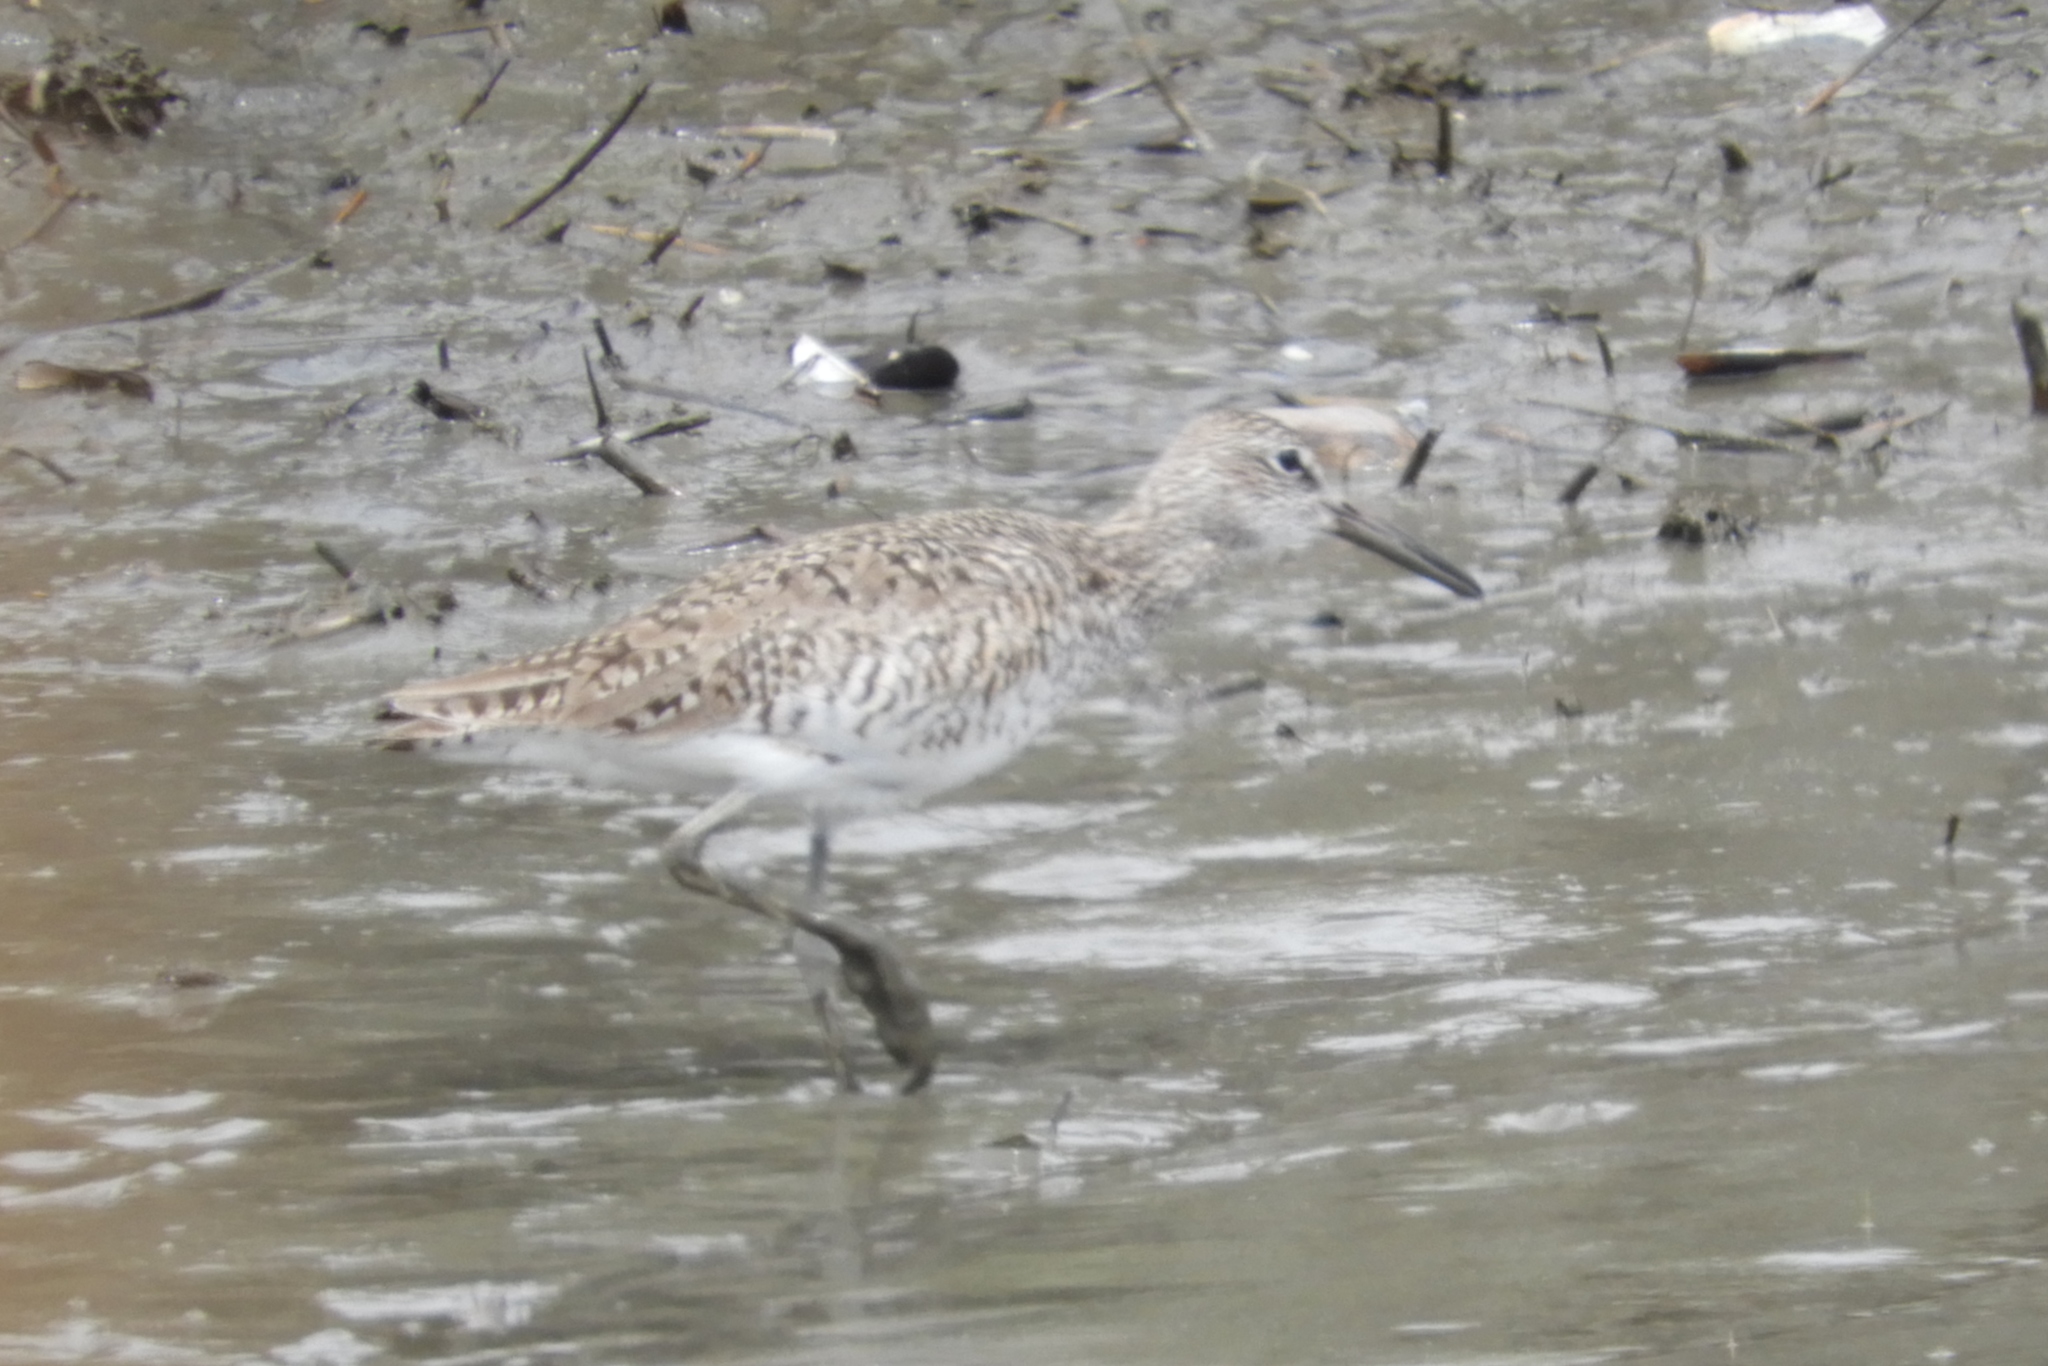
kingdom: Animalia
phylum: Chordata
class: Aves
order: Charadriiformes
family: Scolopacidae
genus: Tringa
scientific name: Tringa semipalmata
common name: Willet
